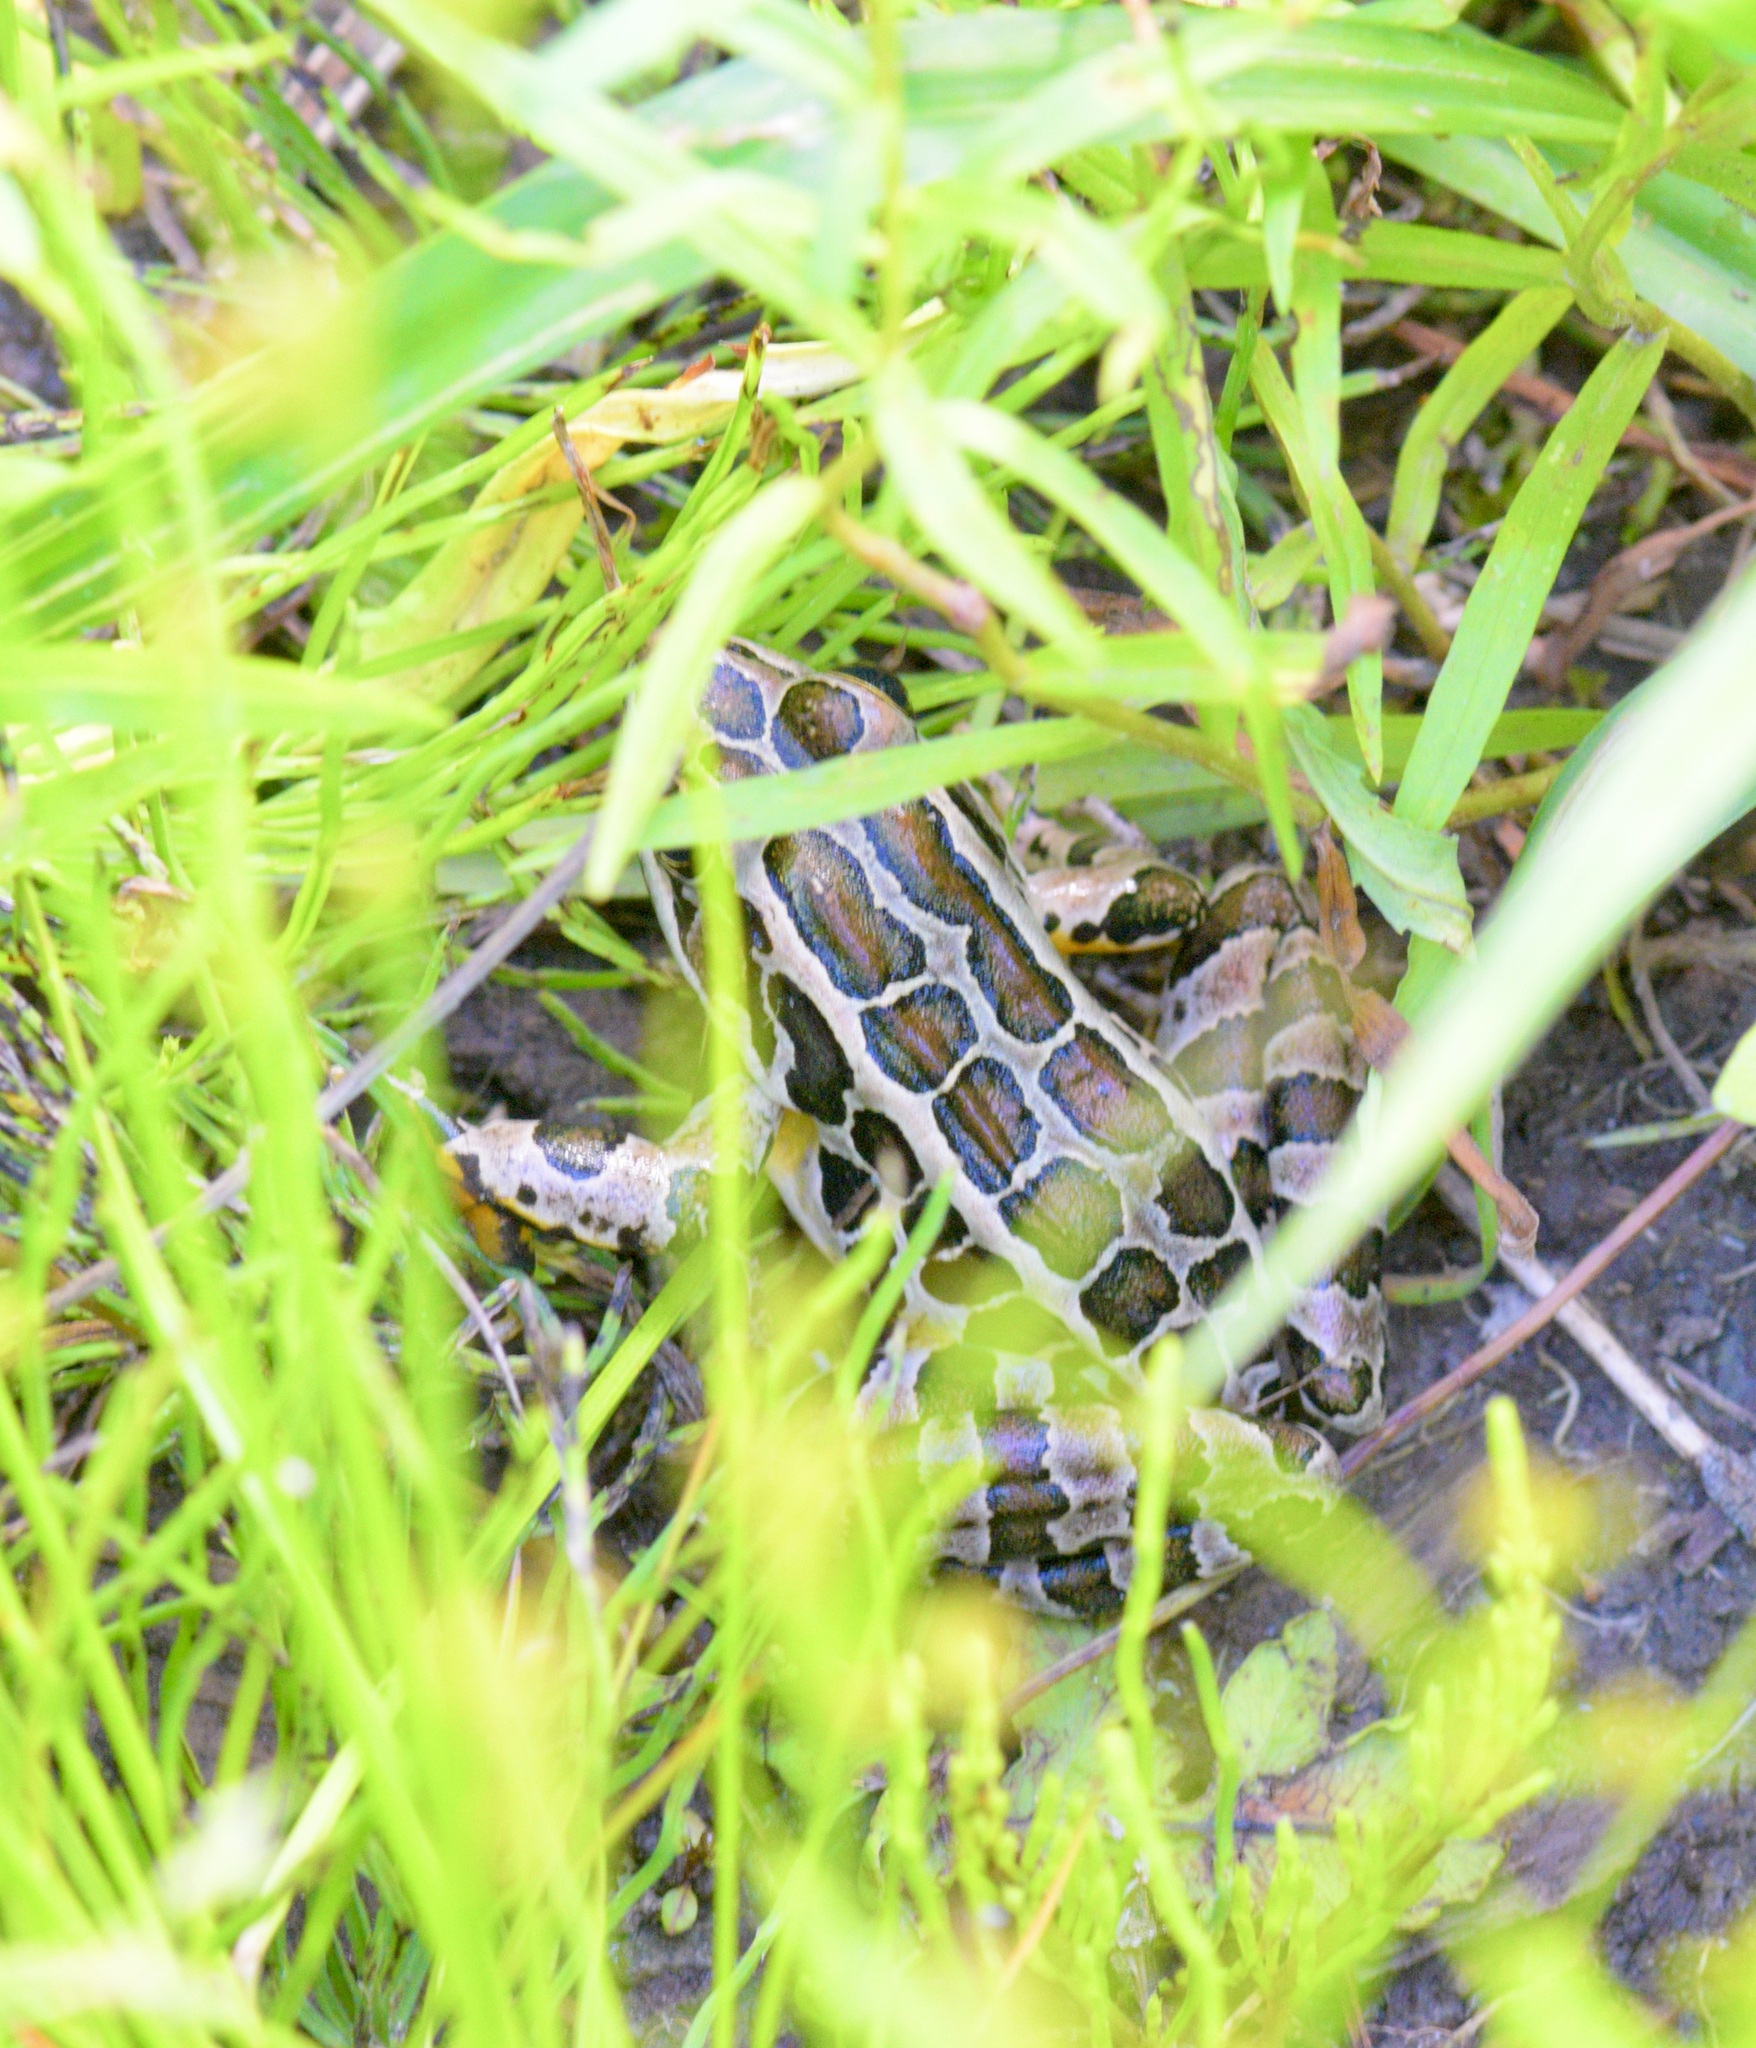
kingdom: Animalia
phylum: Chordata
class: Amphibia
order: Anura
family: Ranidae
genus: Lithobates
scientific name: Lithobates palustris
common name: Pickerel frog
